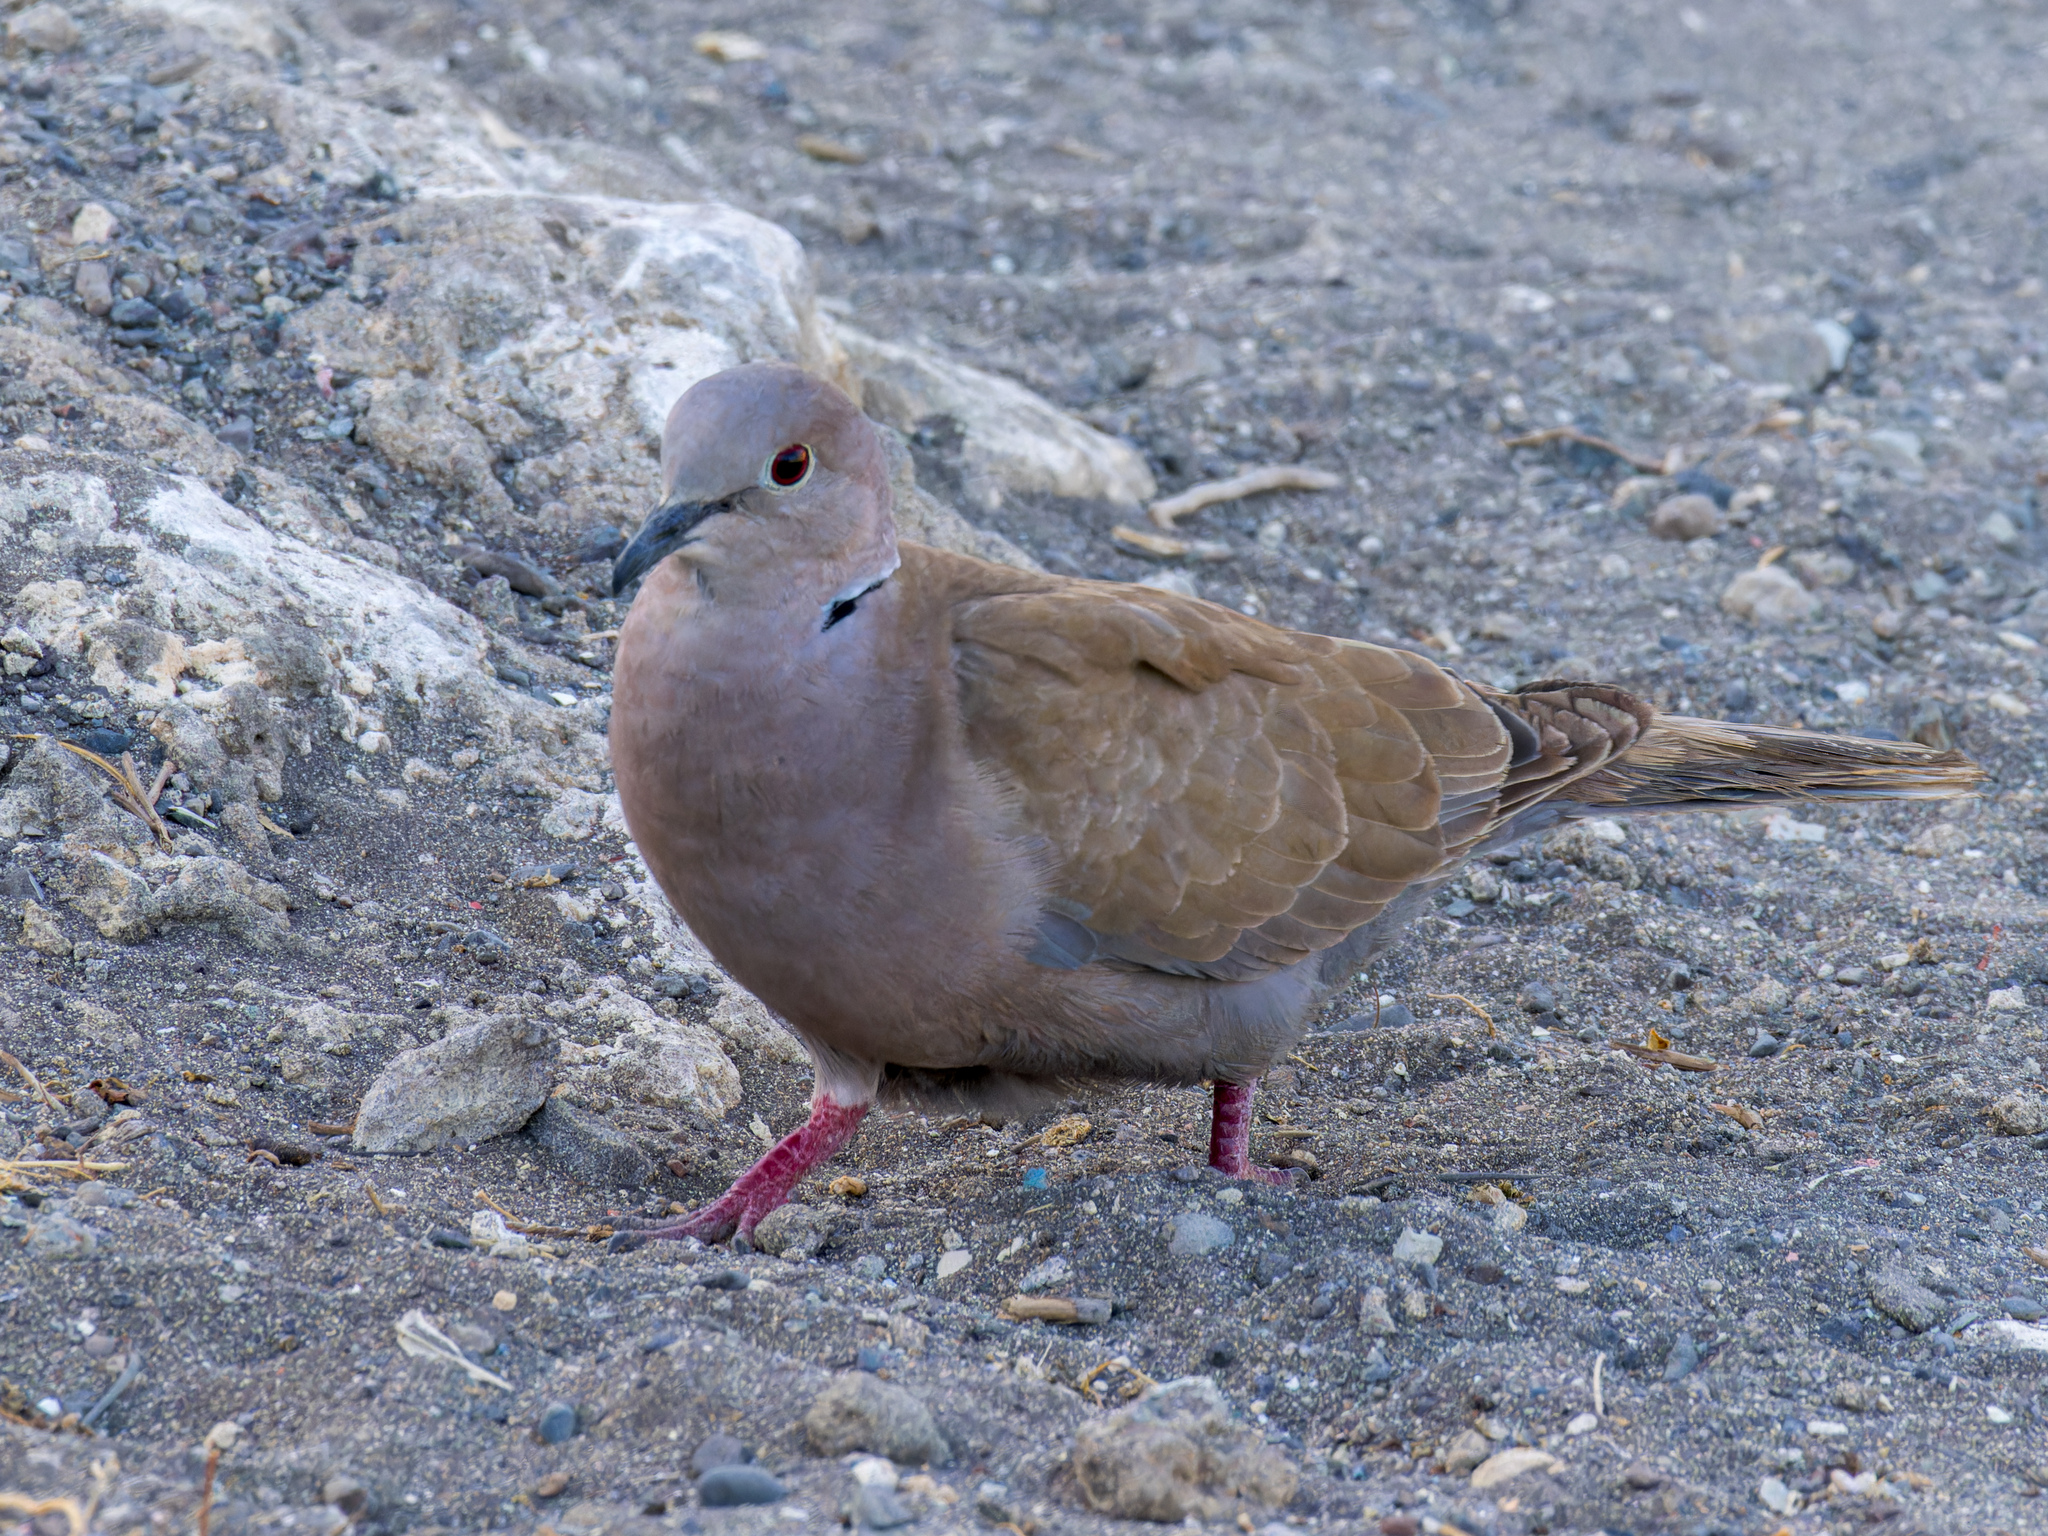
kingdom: Animalia
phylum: Chordata
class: Aves
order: Columbiformes
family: Columbidae
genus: Streptopelia
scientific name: Streptopelia decaocto
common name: Eurasian collared dove
